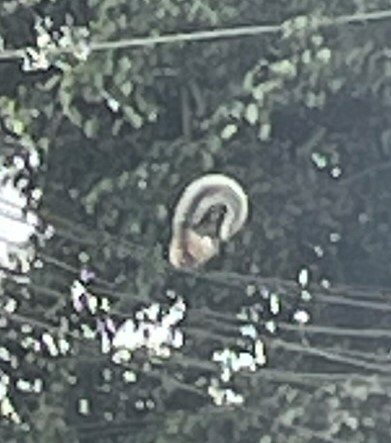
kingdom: Animalia
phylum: Chordata
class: Mammalia
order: Rodentia
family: Sciuridae
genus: Sciurus
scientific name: Sciurus stramineus
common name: Guayaquil squirrel
